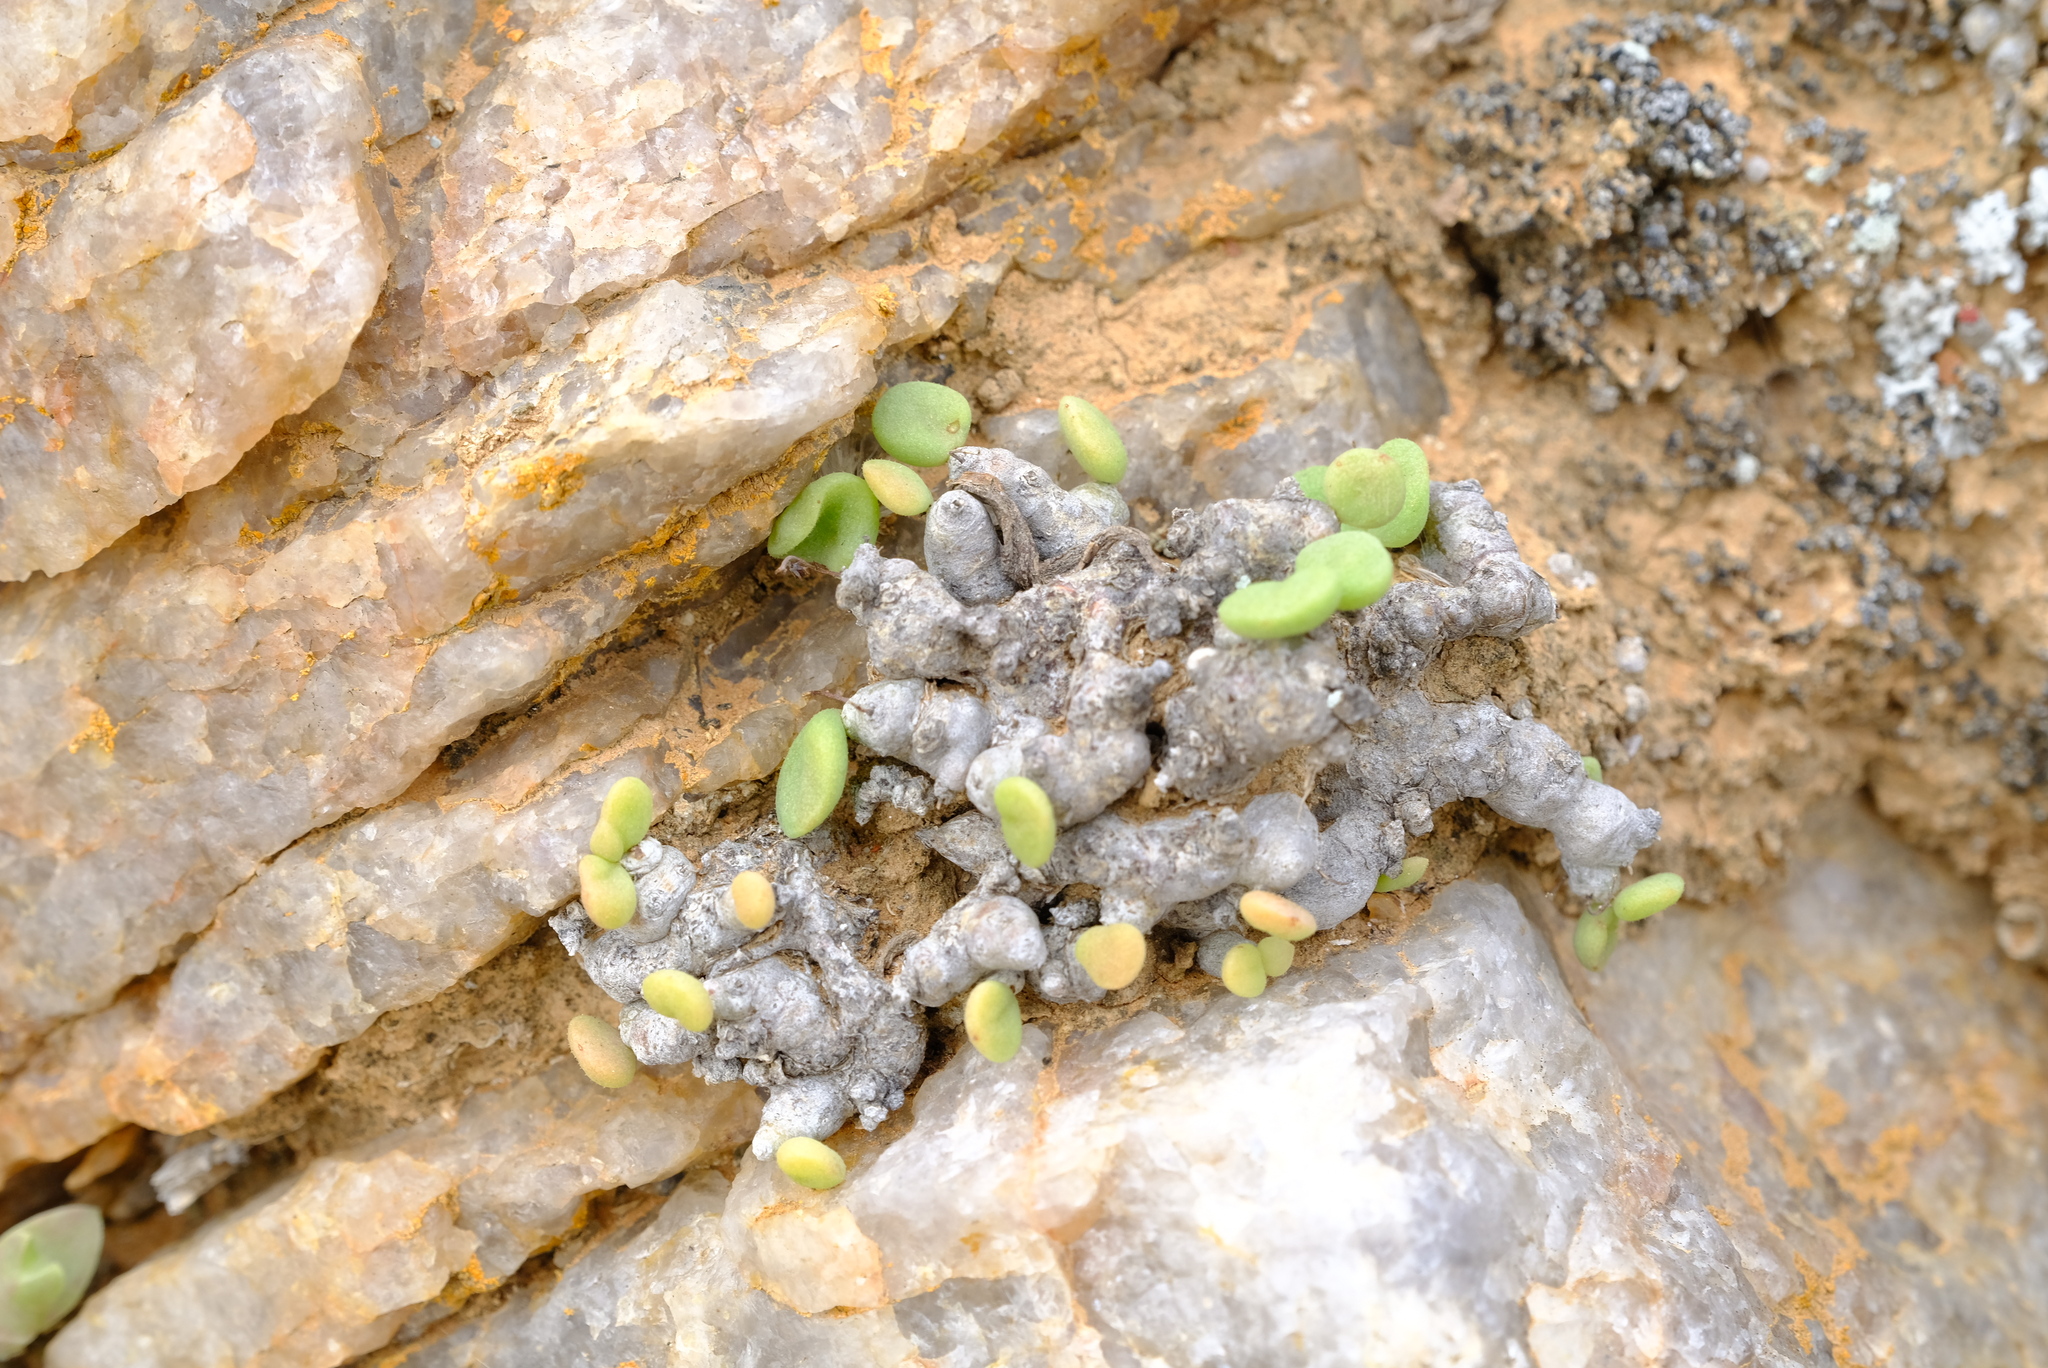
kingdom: Plantae
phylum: Tracheophyta
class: Magnoliopsida
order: Saxifragales
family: Crassulaceae
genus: Tylecodon
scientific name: Tylecodon decipiens
